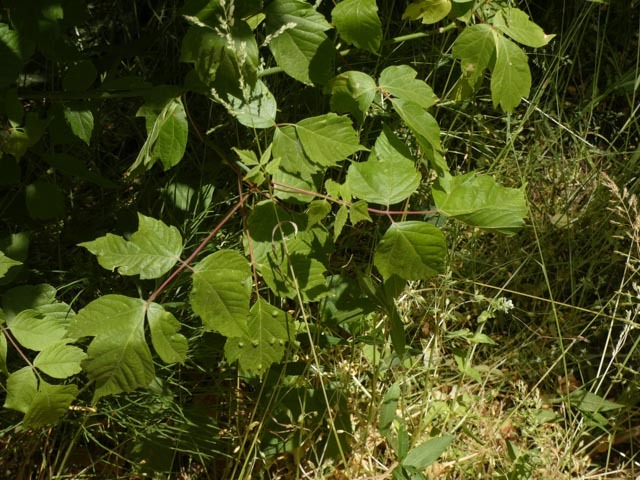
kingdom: Plantae
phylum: Tracheophyta
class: Magnoliopsida
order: Sapindales
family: Sapindaceae
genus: Acer
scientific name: Acer negundo
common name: Ashleaf maple
